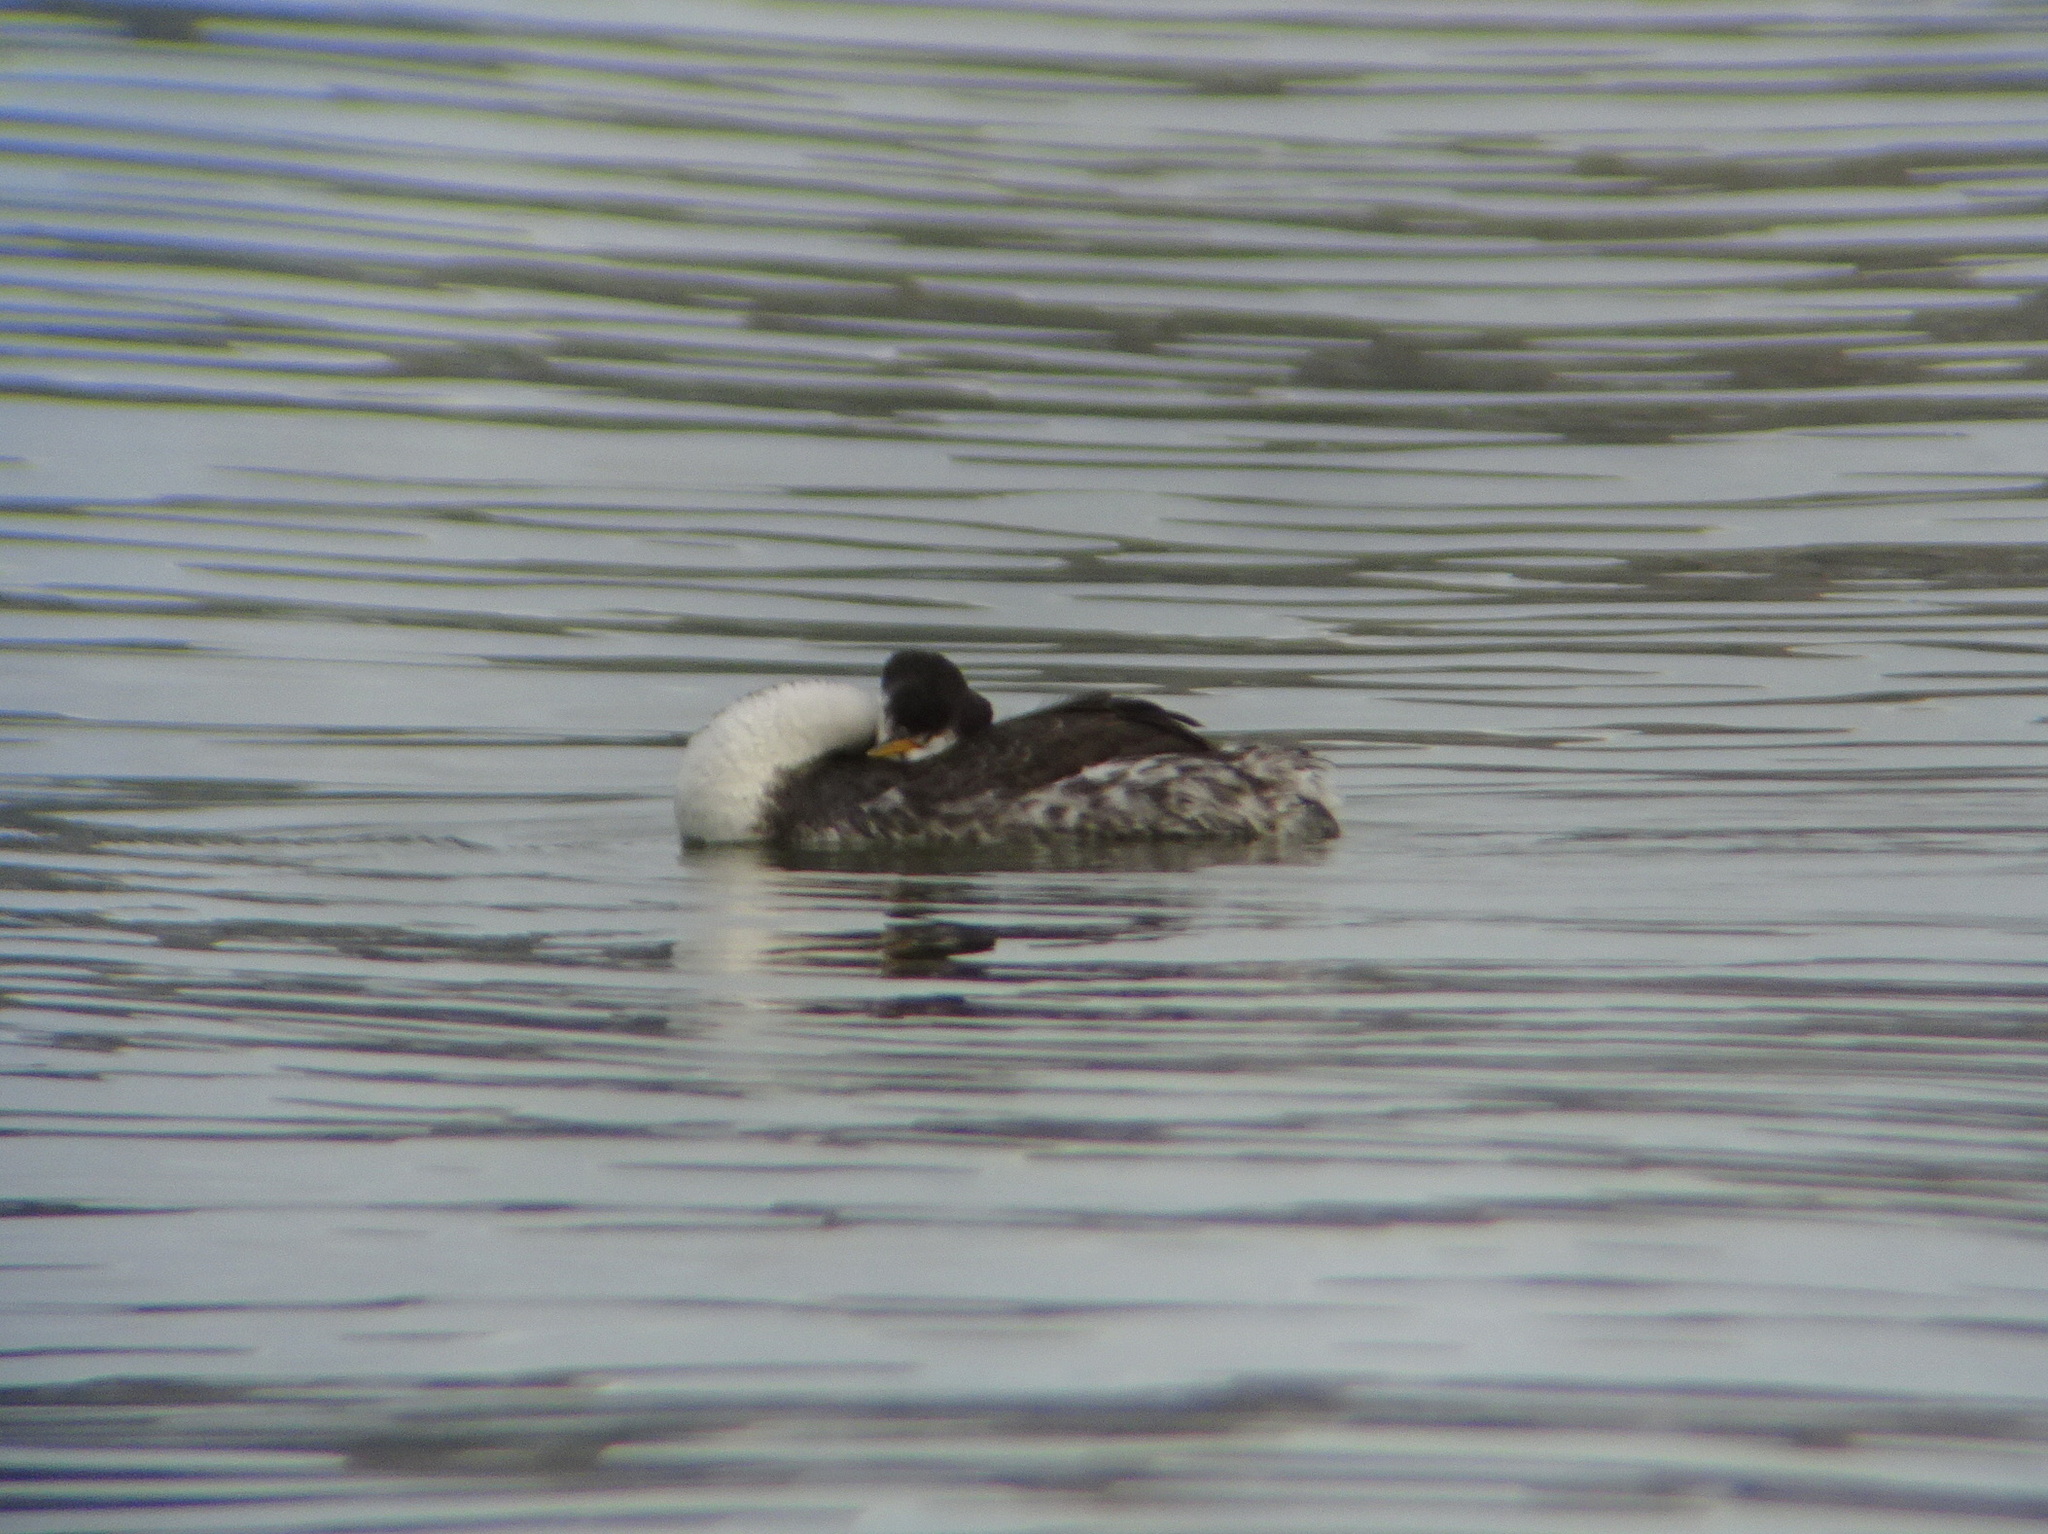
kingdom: Animalia
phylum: Chordata
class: Aves
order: Podicipediformes
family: Podicipedidae
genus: Aechmophorus
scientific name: Aechmophorus clarkii
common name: Clark's grebe
